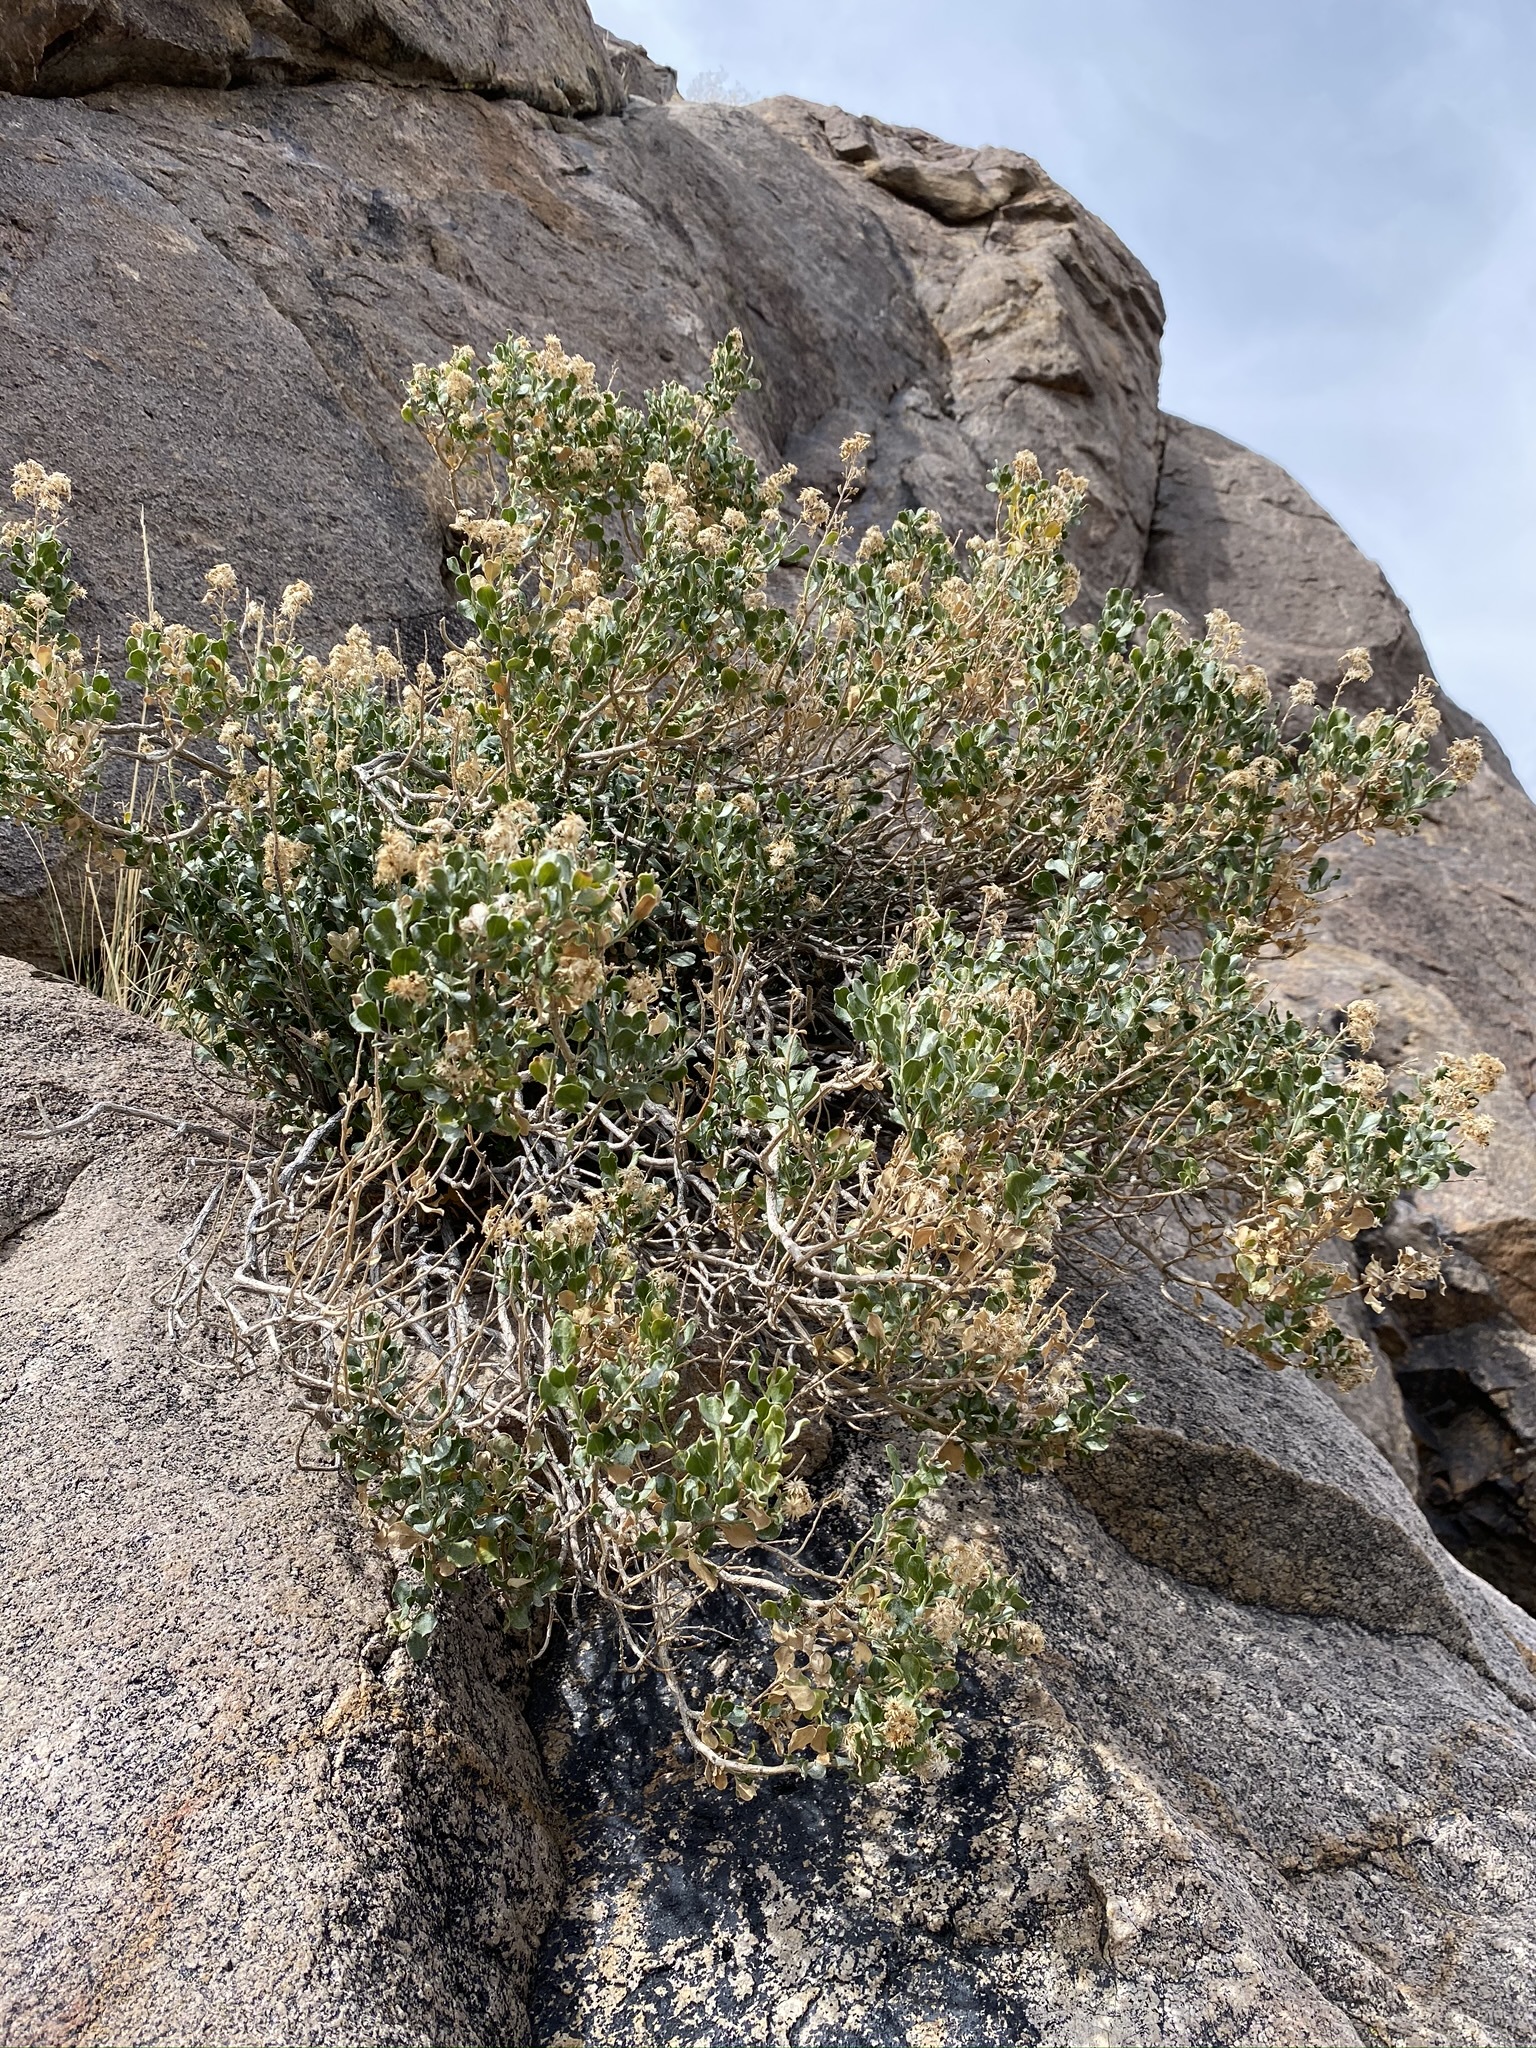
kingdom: Plantae
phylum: Tracheophyta
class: Magnoliopsida
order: Asterales
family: Asteraceae
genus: Ericameria
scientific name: Ericameria cuneata
